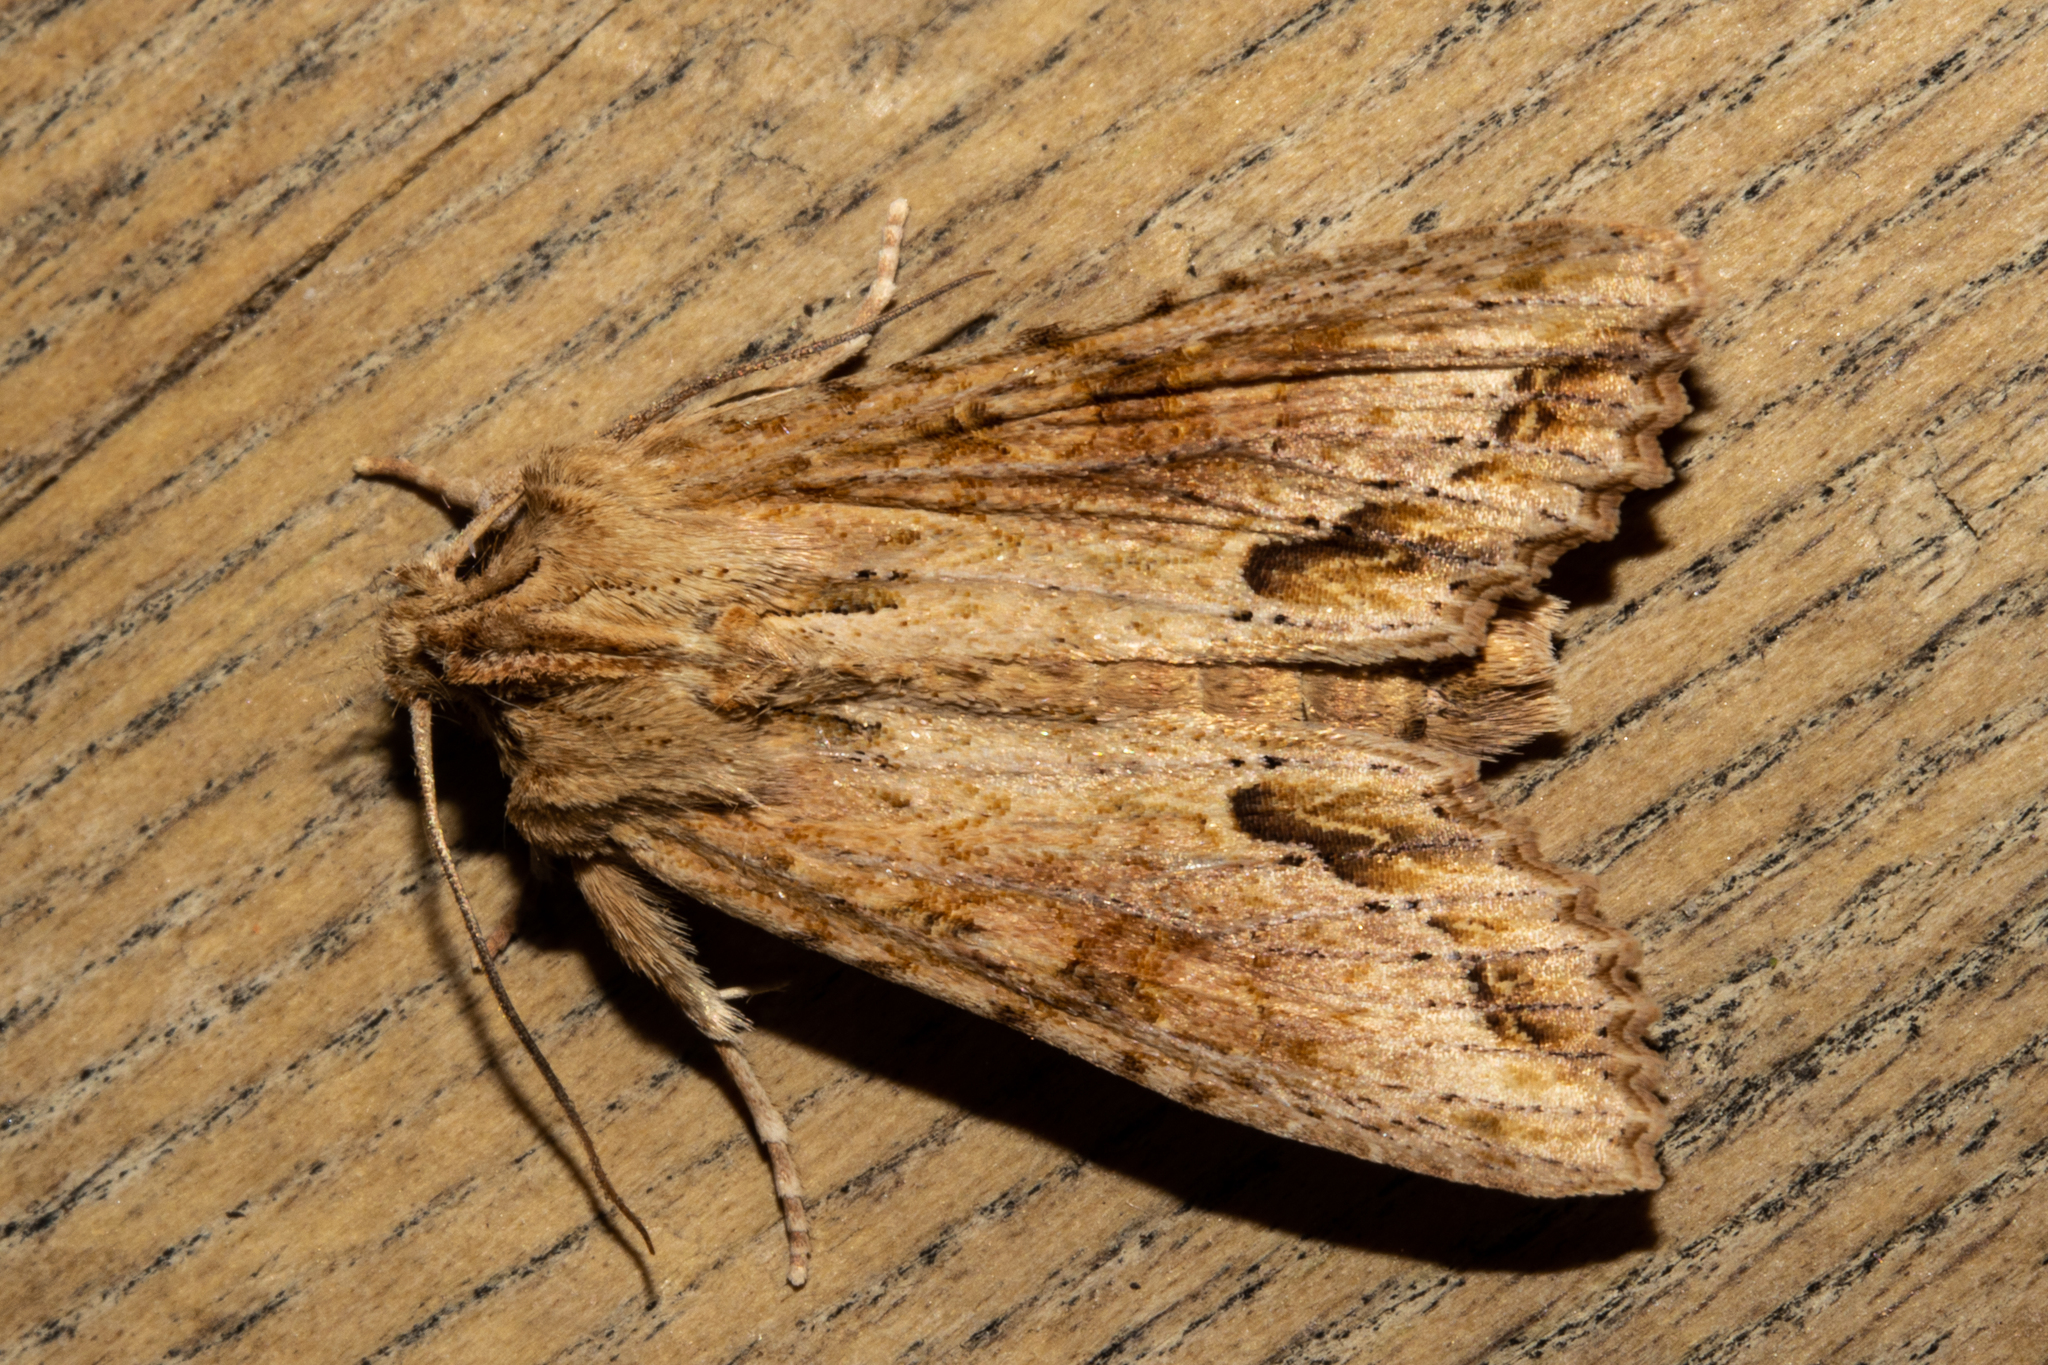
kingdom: Animalia
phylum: Arthropoda
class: Insecta
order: Lepidoptera
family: Noctuidae
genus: Ichneutica
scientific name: Ichneutica mollis
